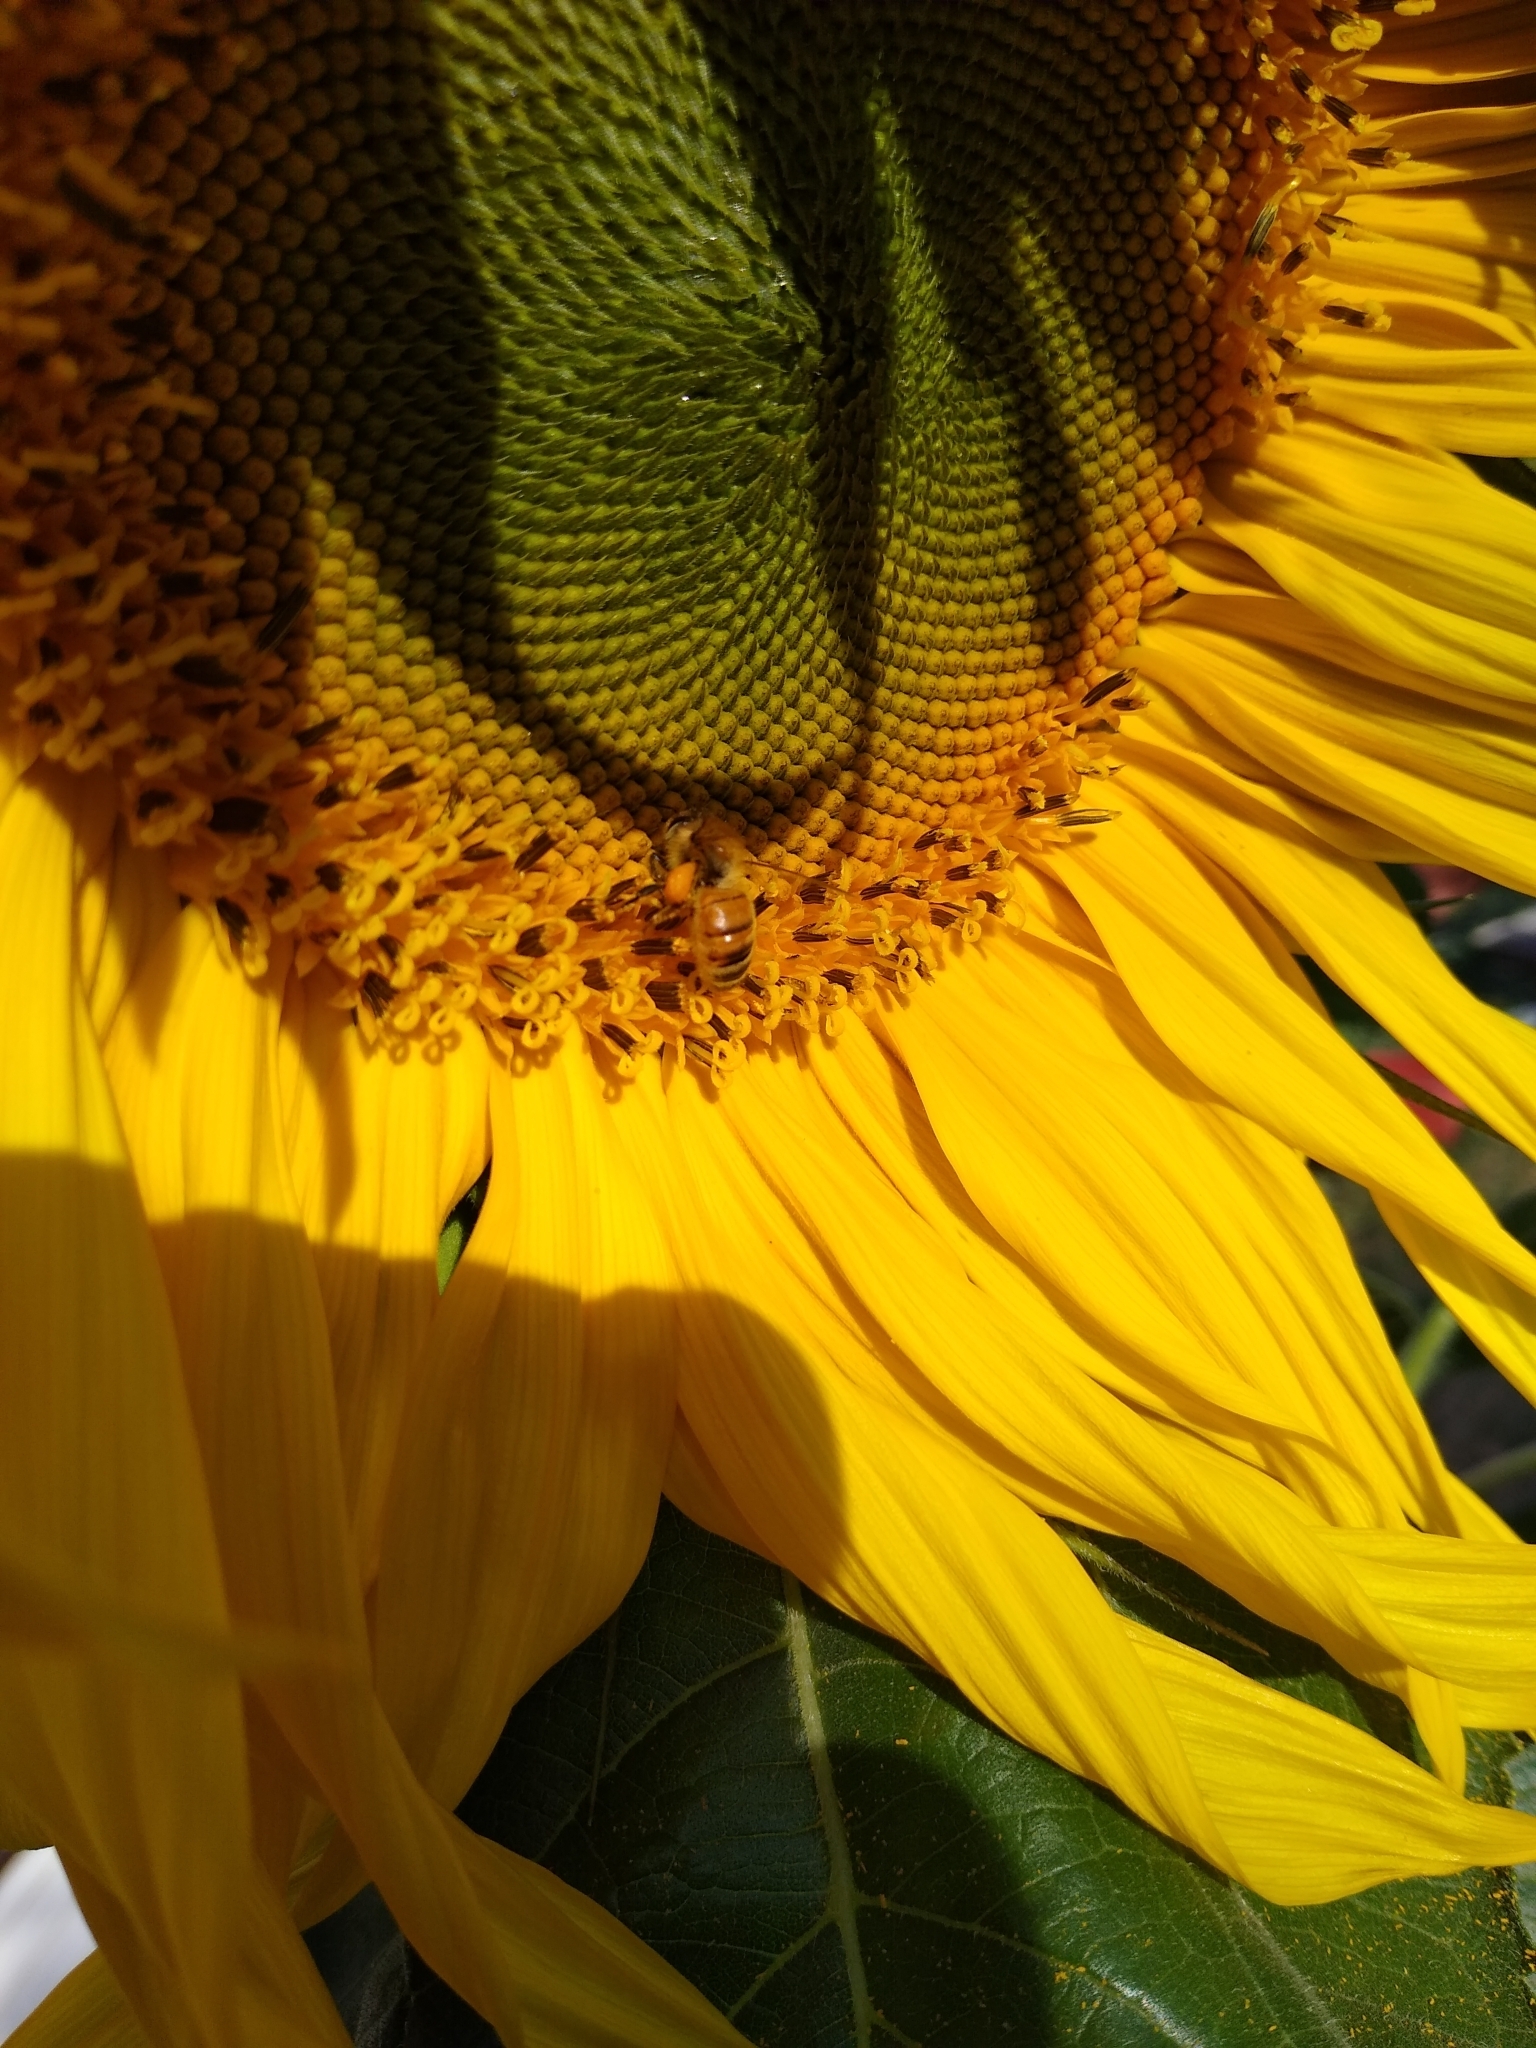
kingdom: Animalia
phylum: Arthropoda
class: Insecta
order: Hymenoptera
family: Apidae
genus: Apis
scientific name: Apis mellifera
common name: Honey bee
